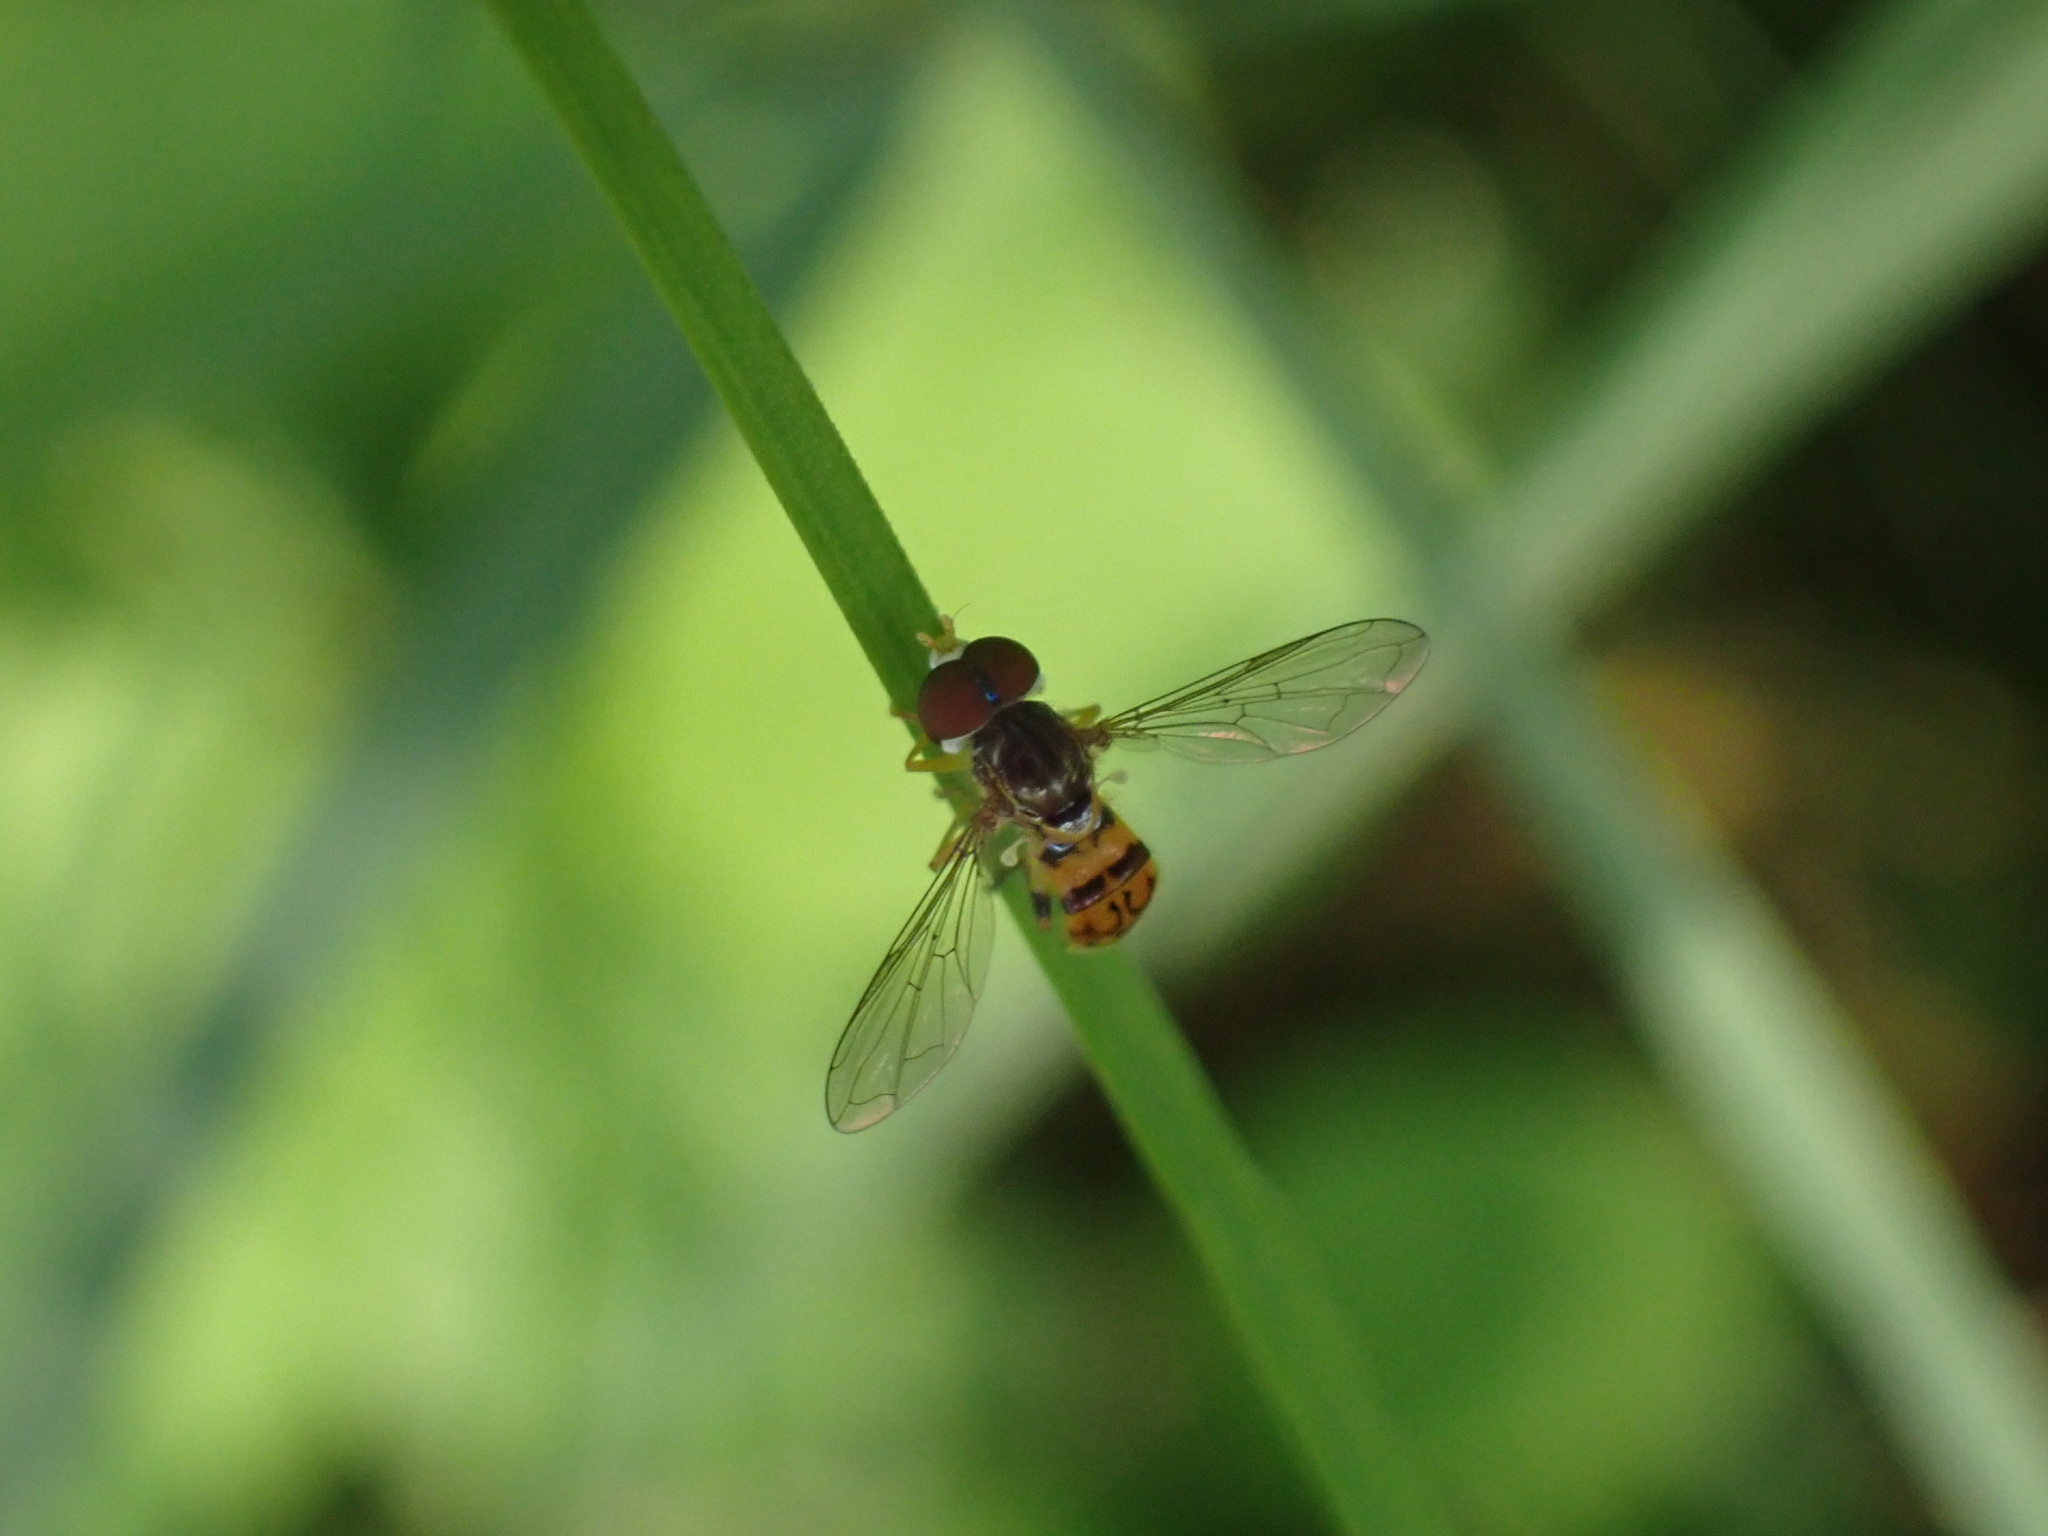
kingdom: Animalia
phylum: Arthropoda
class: Insecta
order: Diptera
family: Syrphidae
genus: Toxomerus
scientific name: Toxomerus boscii
